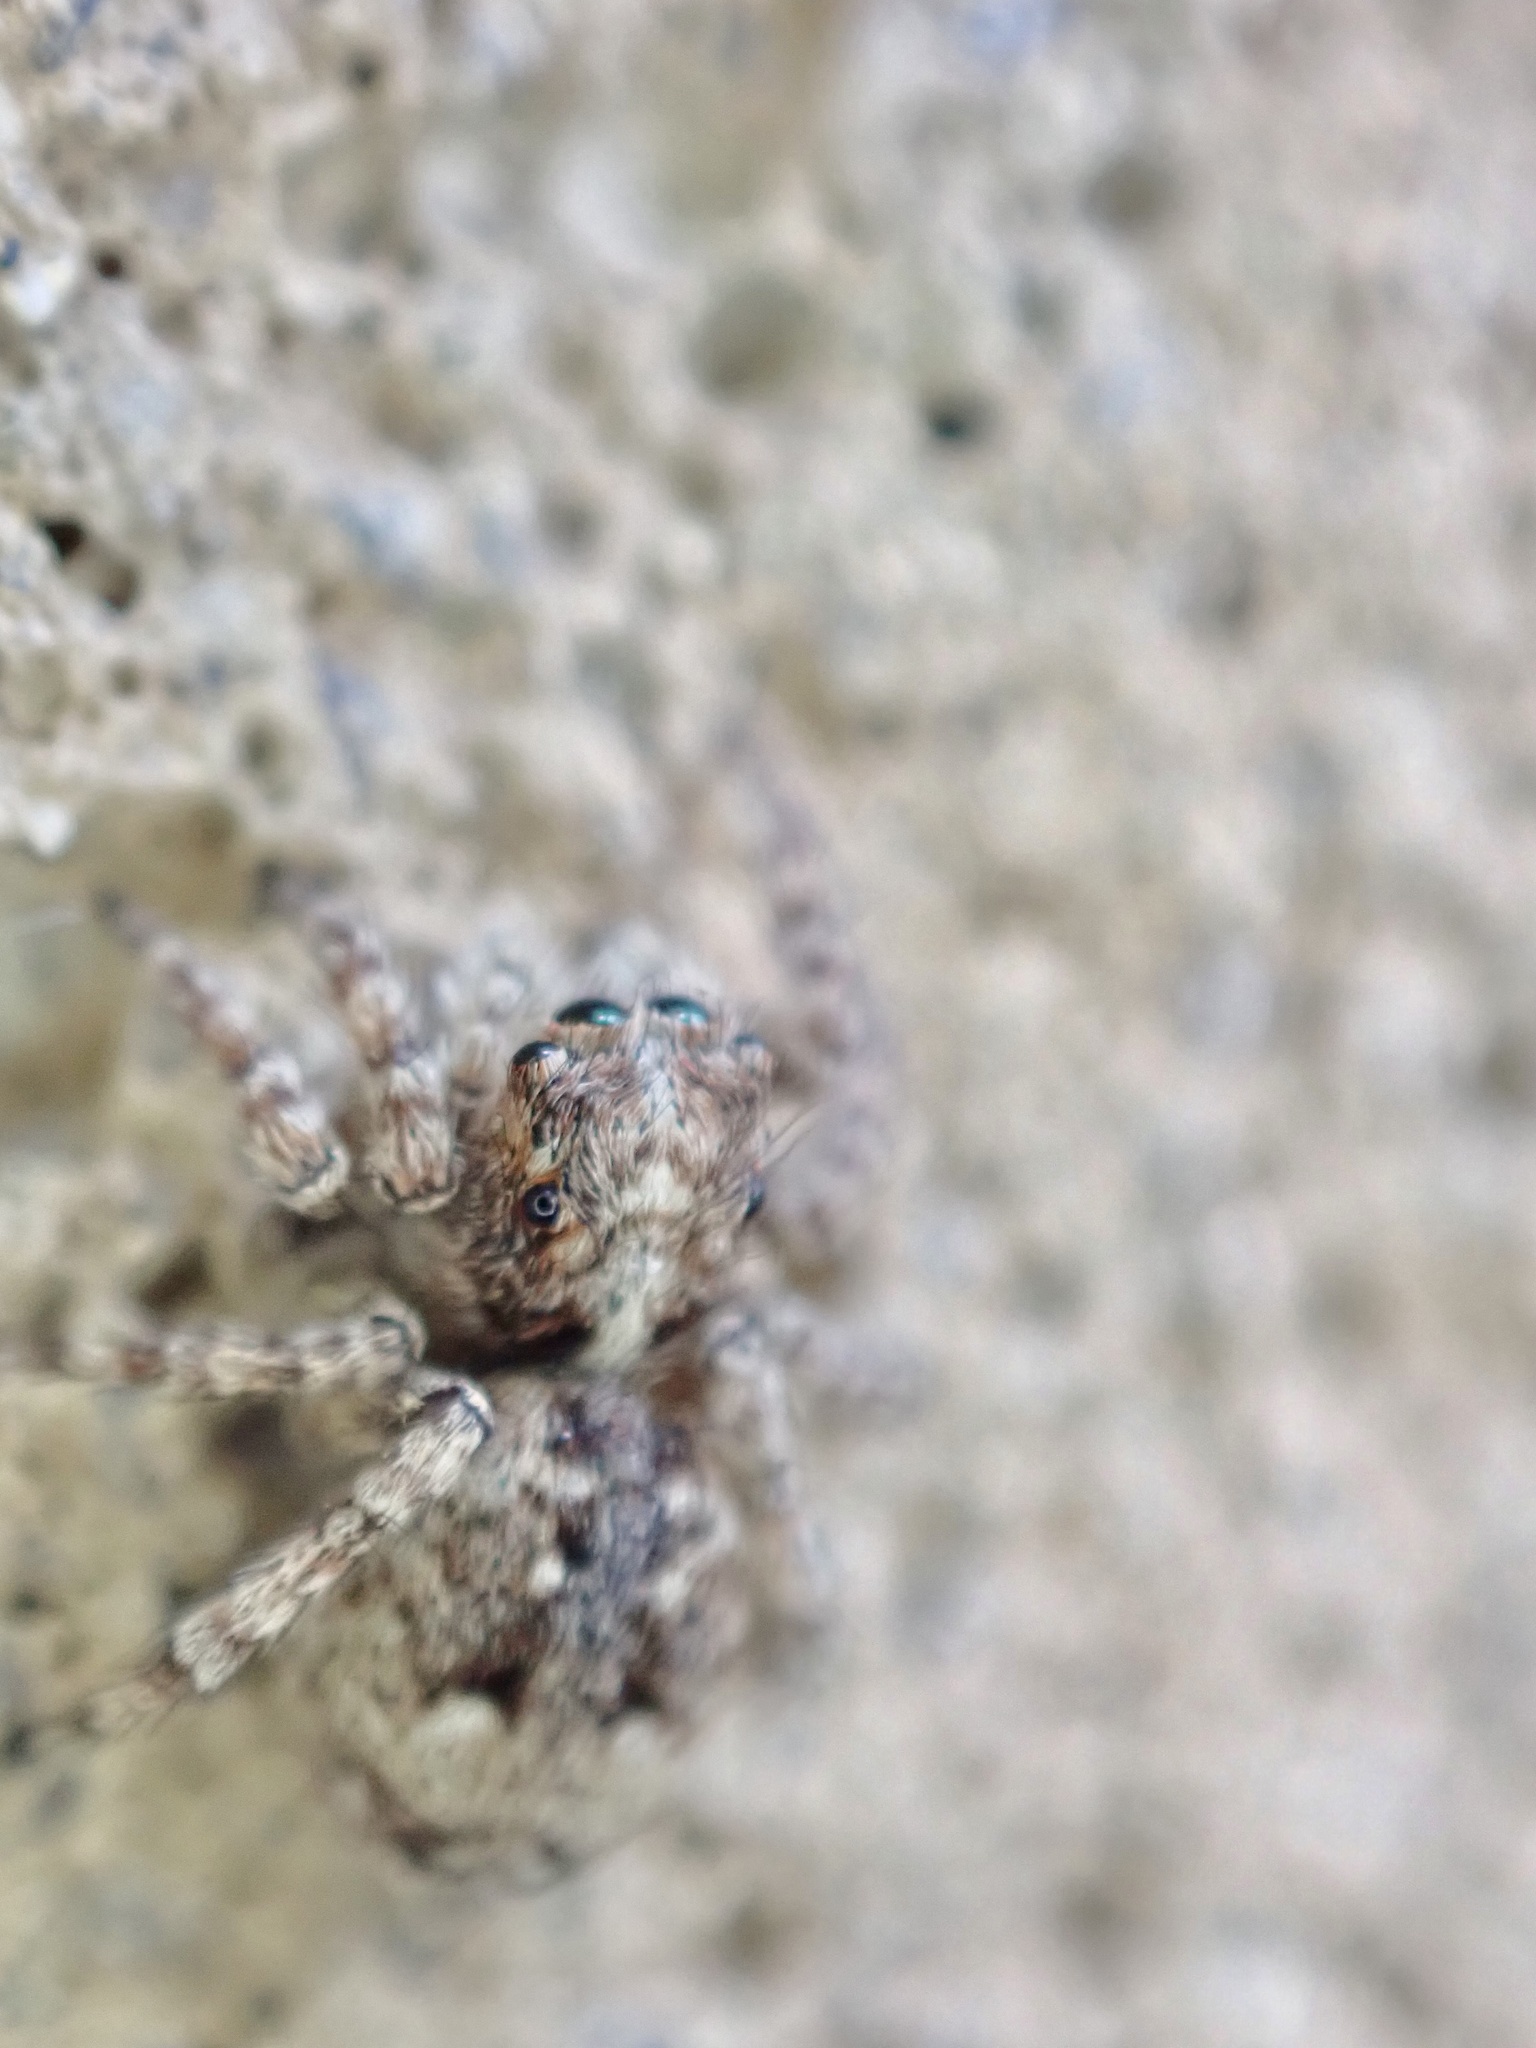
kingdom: Animalia
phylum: Arthropoda
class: Arachnida
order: Araneae
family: Salticidae
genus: Attulus
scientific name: Attulus fasciger
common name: Asiatic wall jumping spider
